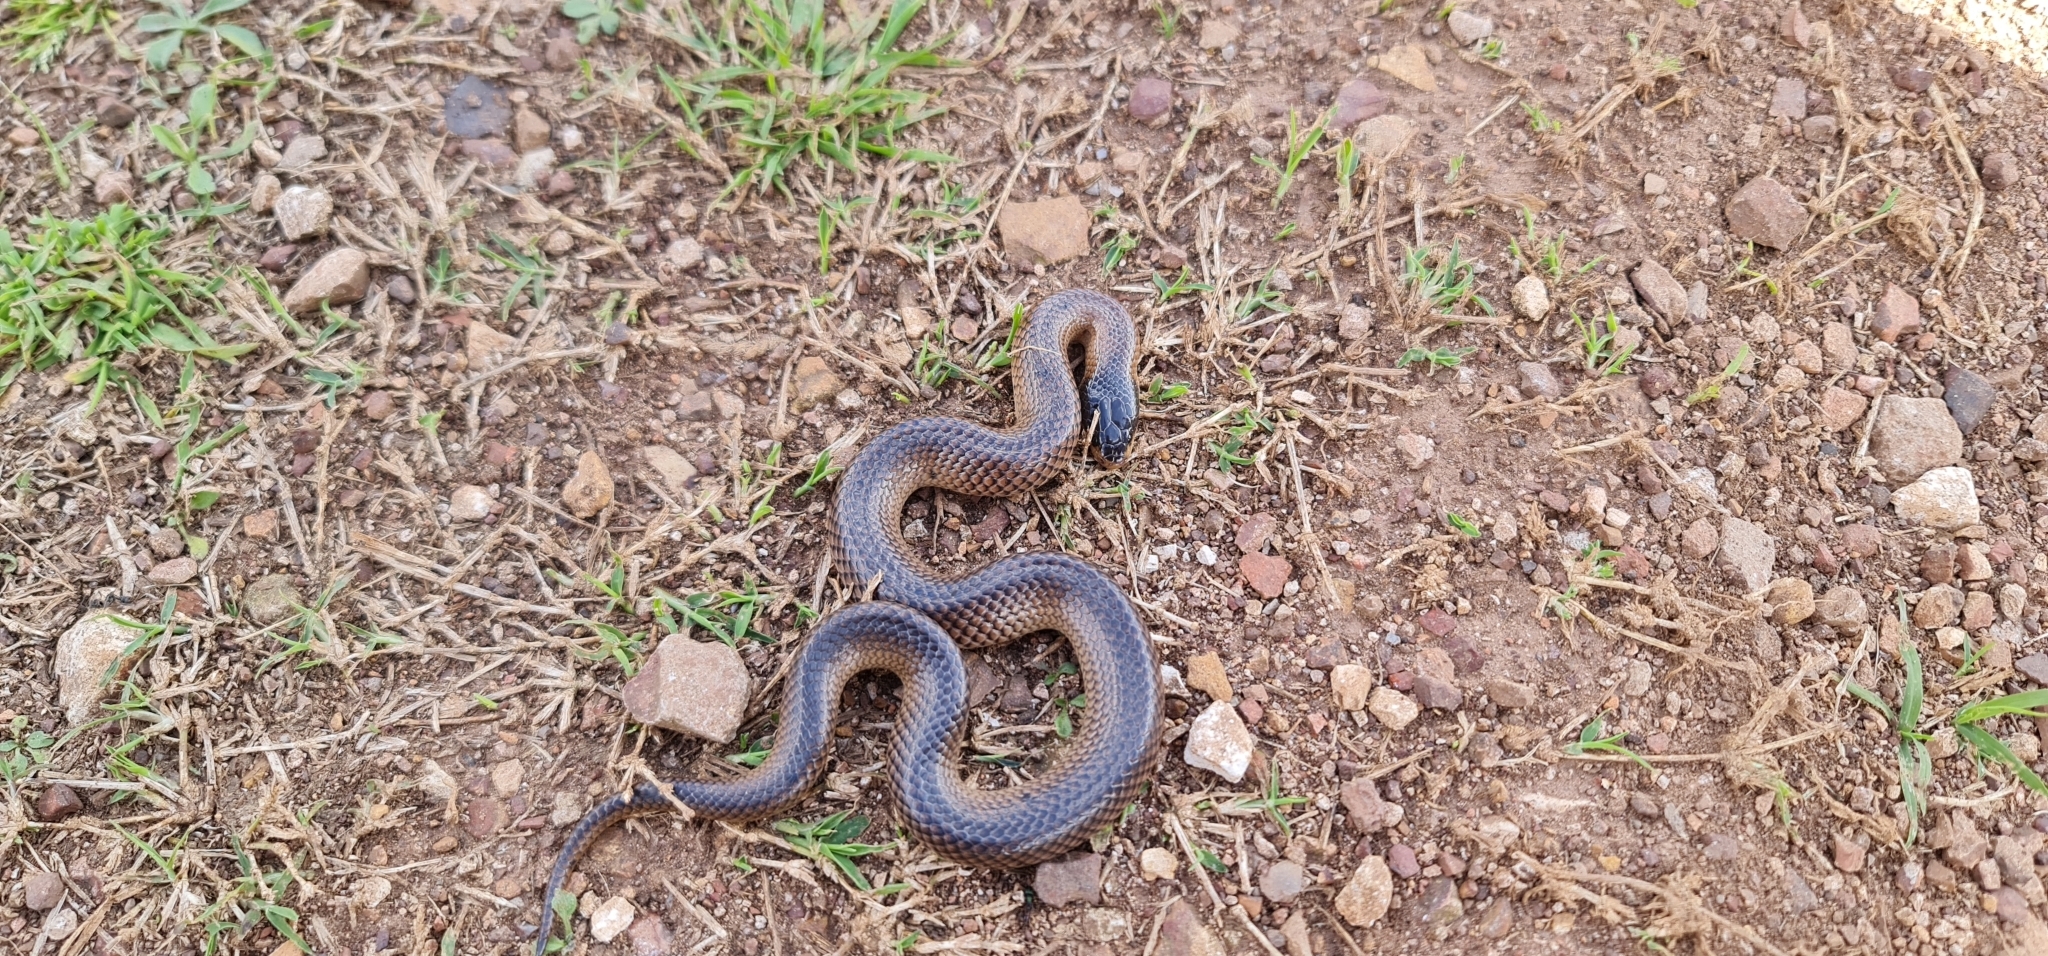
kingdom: Animalia
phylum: Chordata
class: Squamata
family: Elapidae
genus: Suta
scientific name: Suta dwyeri
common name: Variable black-naped snake
